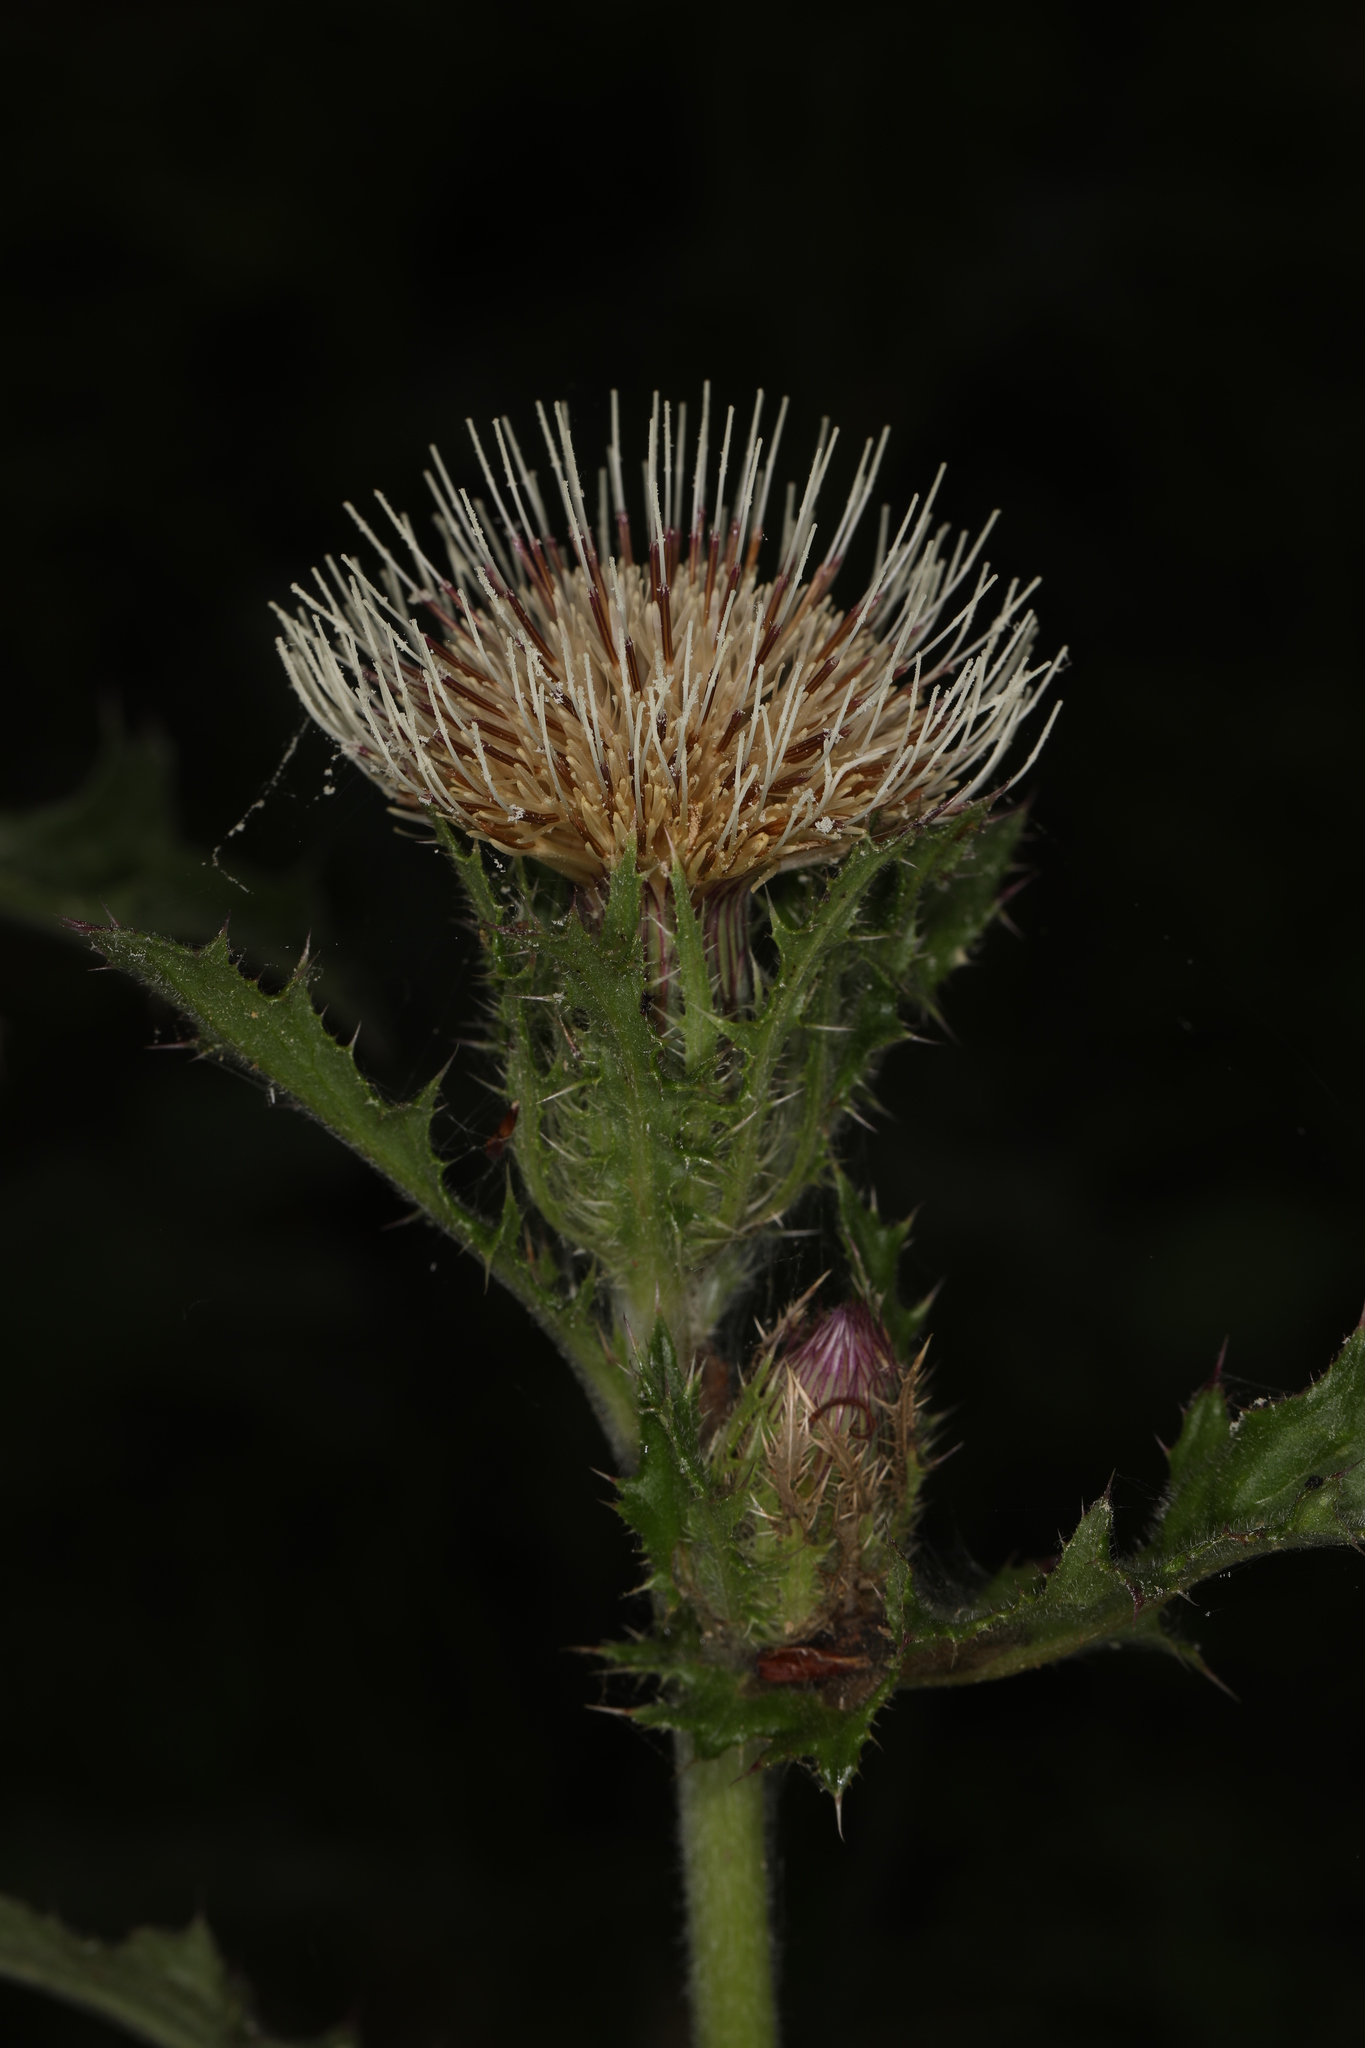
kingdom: Plantae
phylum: Tracheophyta
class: Magnoliopsida
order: Asterales
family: Asteraceae
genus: Cirsium
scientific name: Cirsium horridulum
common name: Bristly thistle
